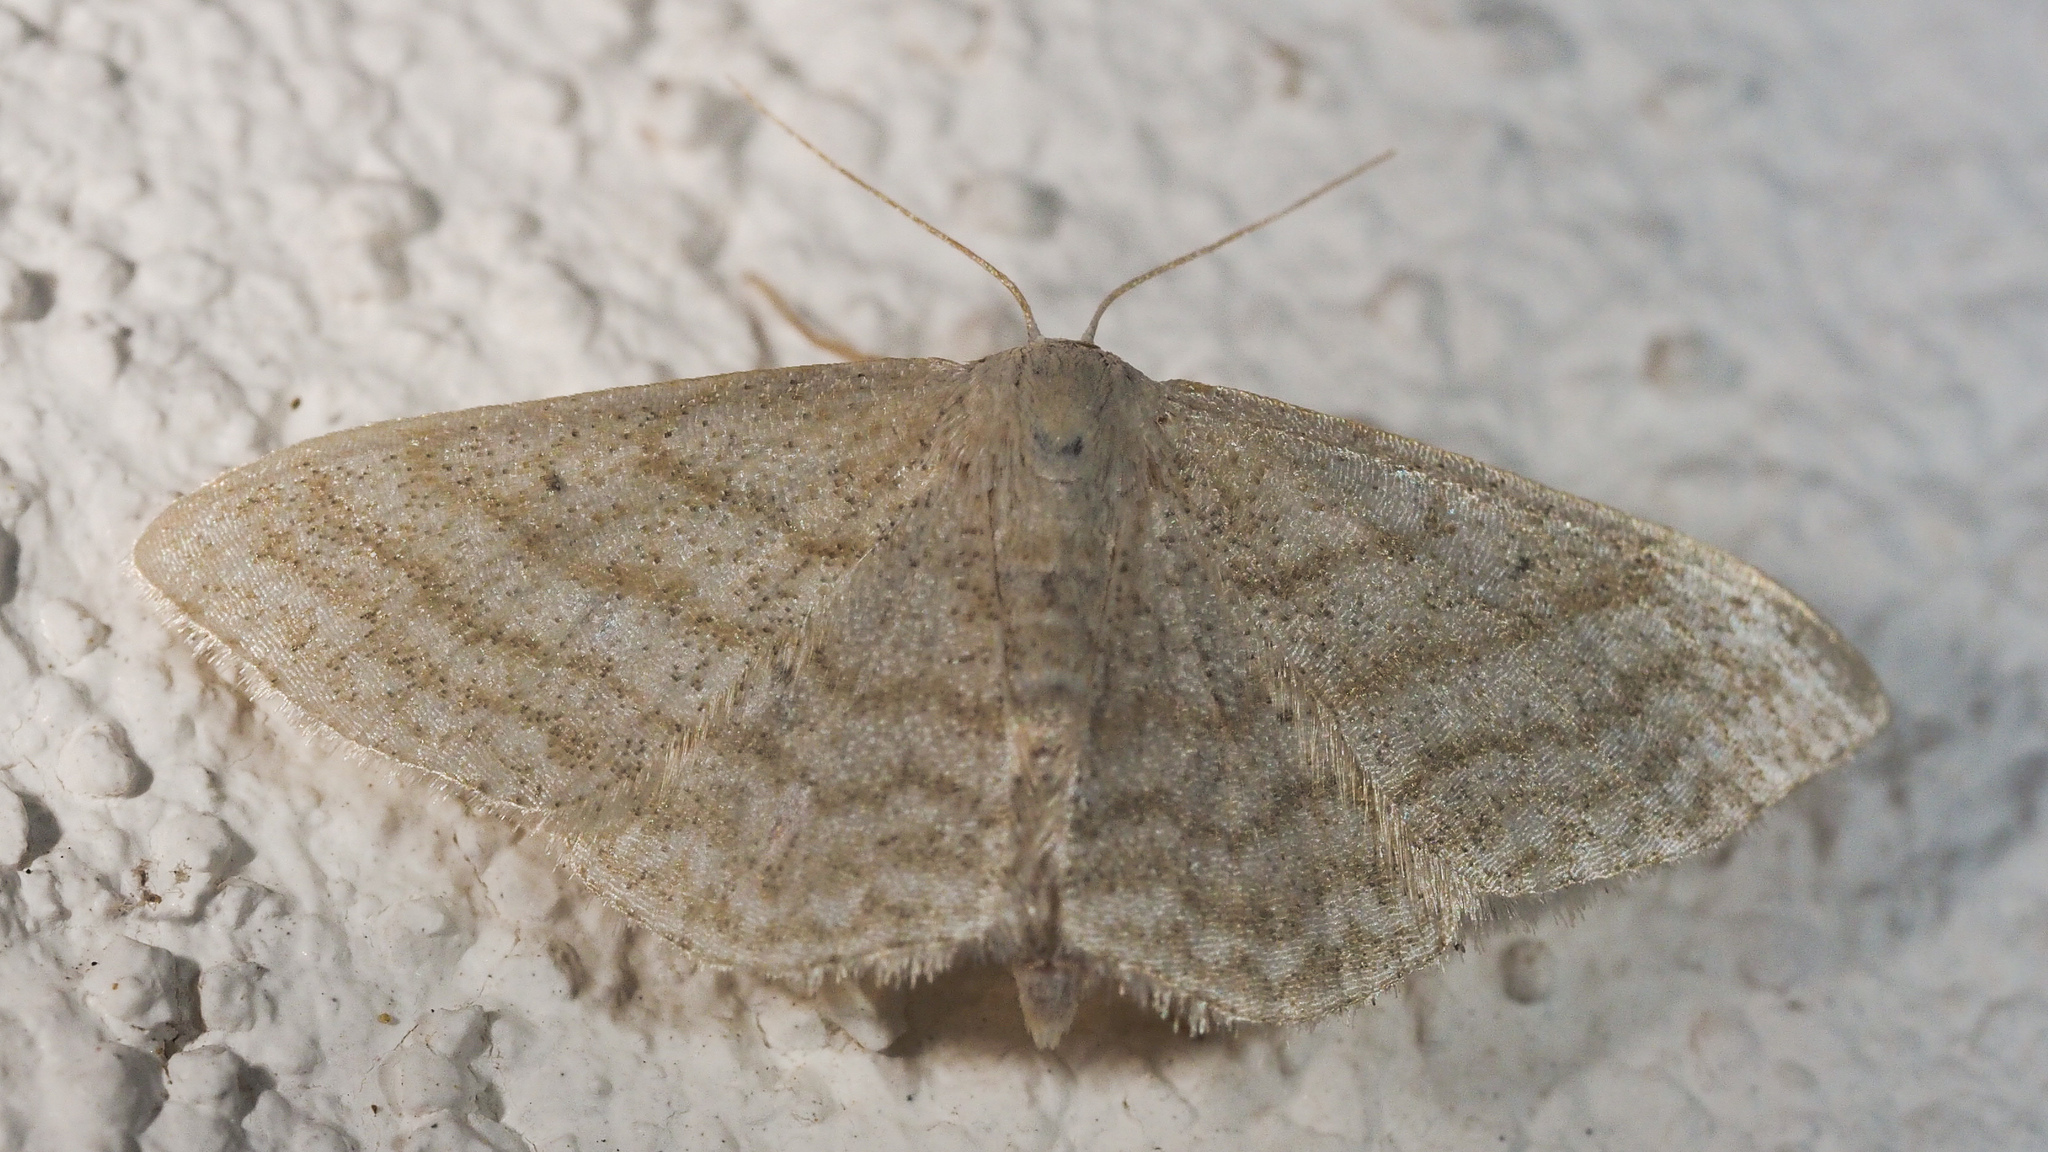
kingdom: Animalia
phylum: Arthropoda
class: Insecta
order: Lepidoptera
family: Geometridae
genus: Idaea
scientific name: Idaea subsericeata
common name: Satin wave
